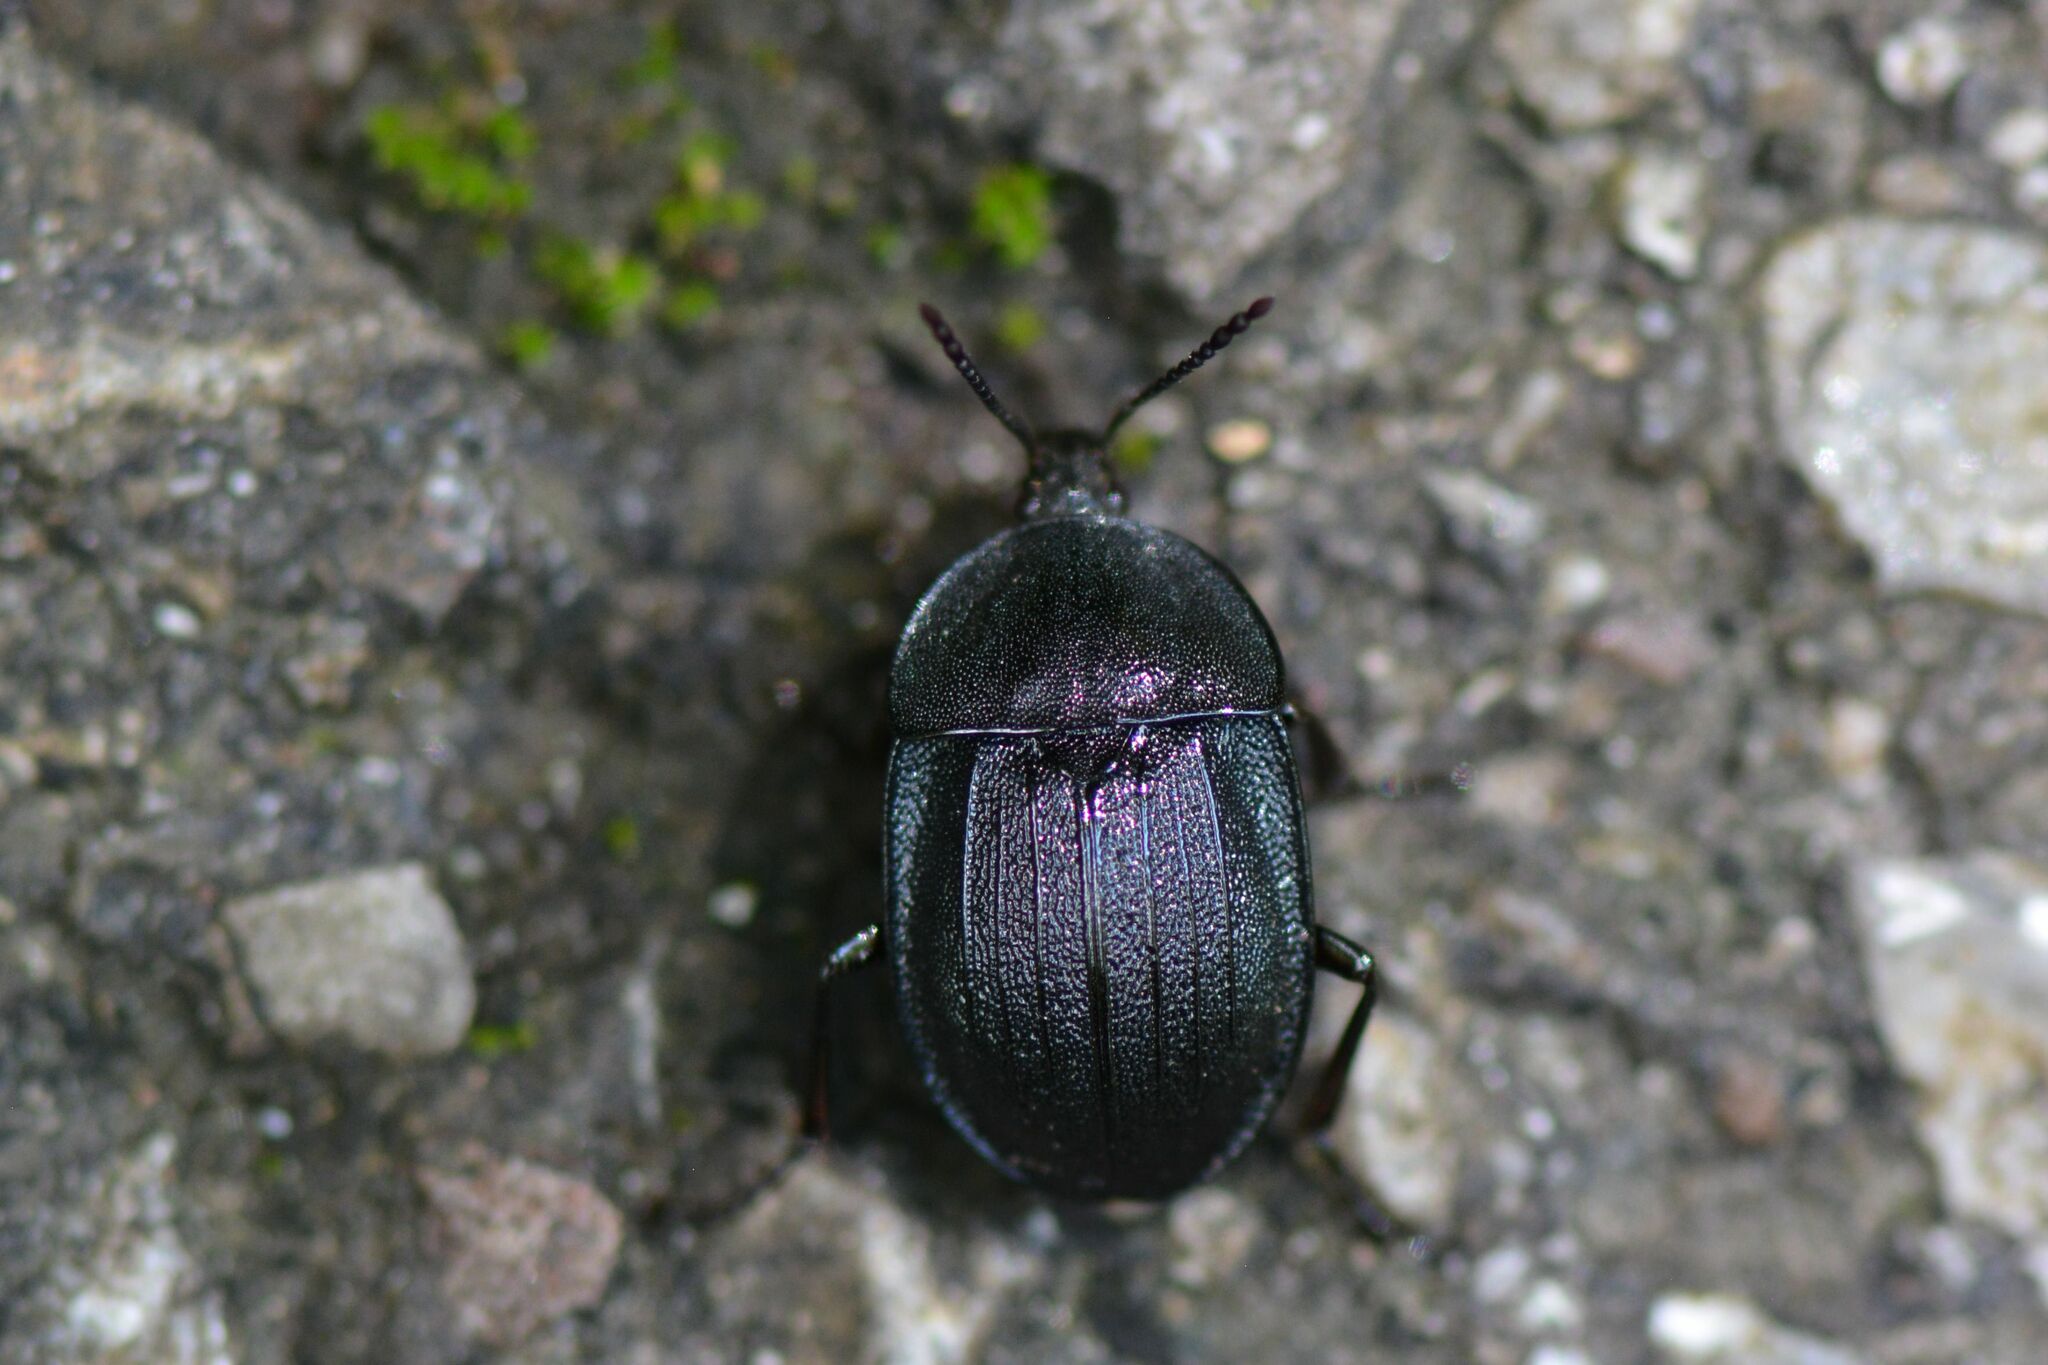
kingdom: Animalia
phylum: Arthropoda
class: Insecta
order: Coleoptera
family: Staphylinidae
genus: Silpha
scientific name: Silpha atrata
